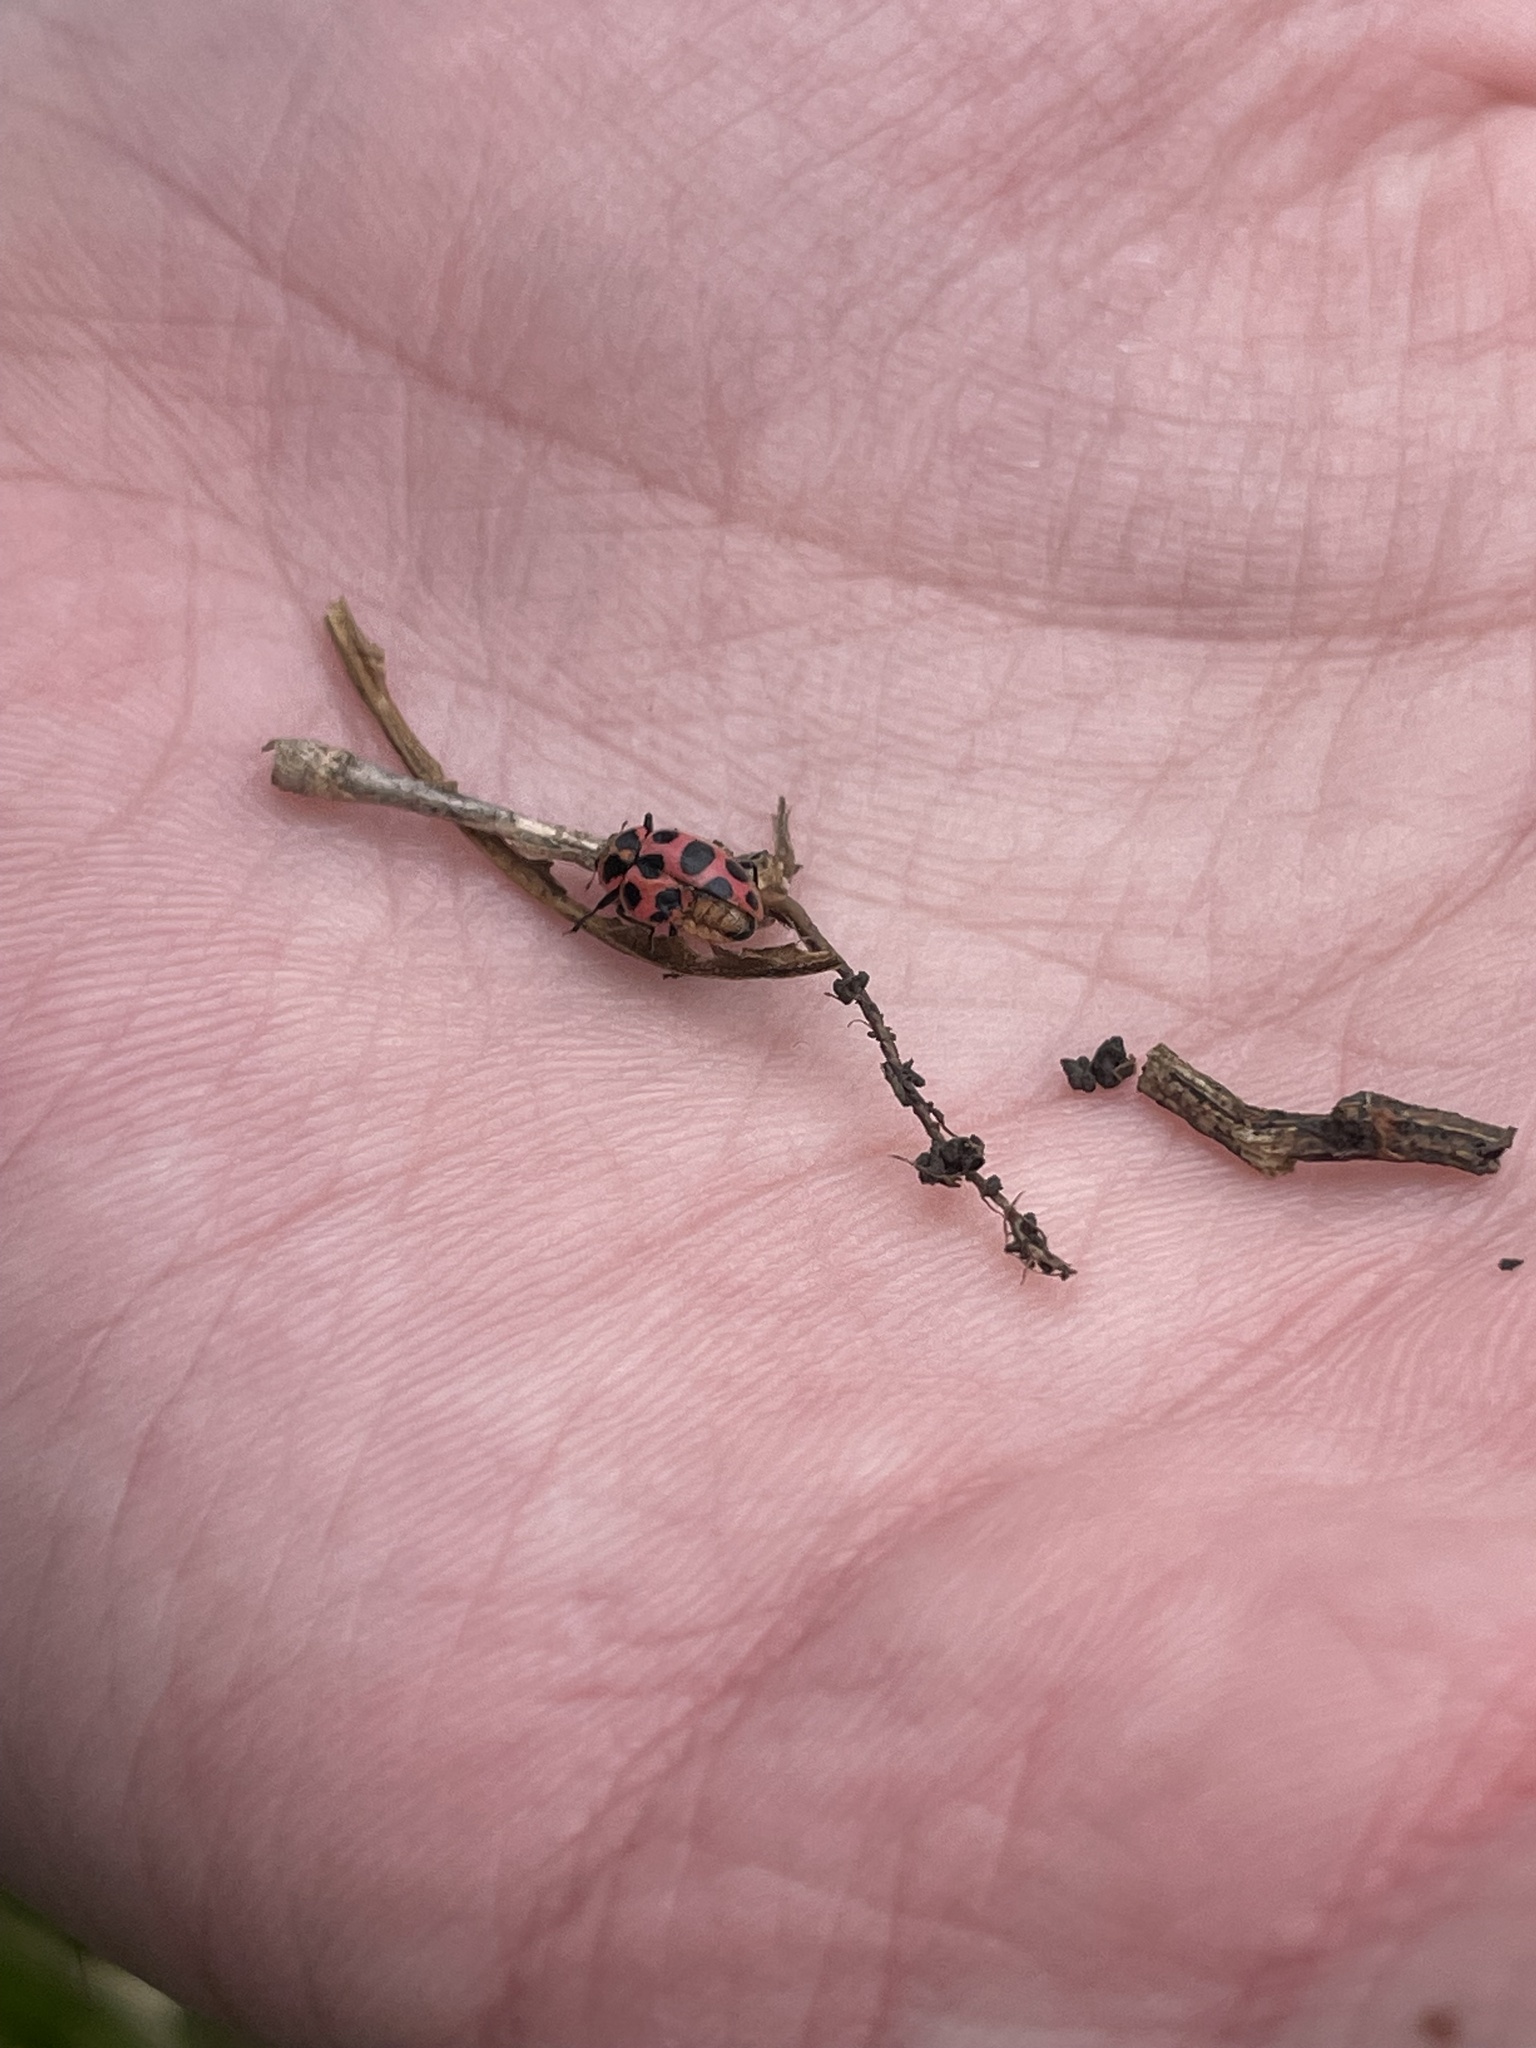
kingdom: Animalia
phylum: Arthropoda
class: Insecta
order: Coleoptera
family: Coccinellidae
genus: Coleomegilla
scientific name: Coleomegilla maculata
